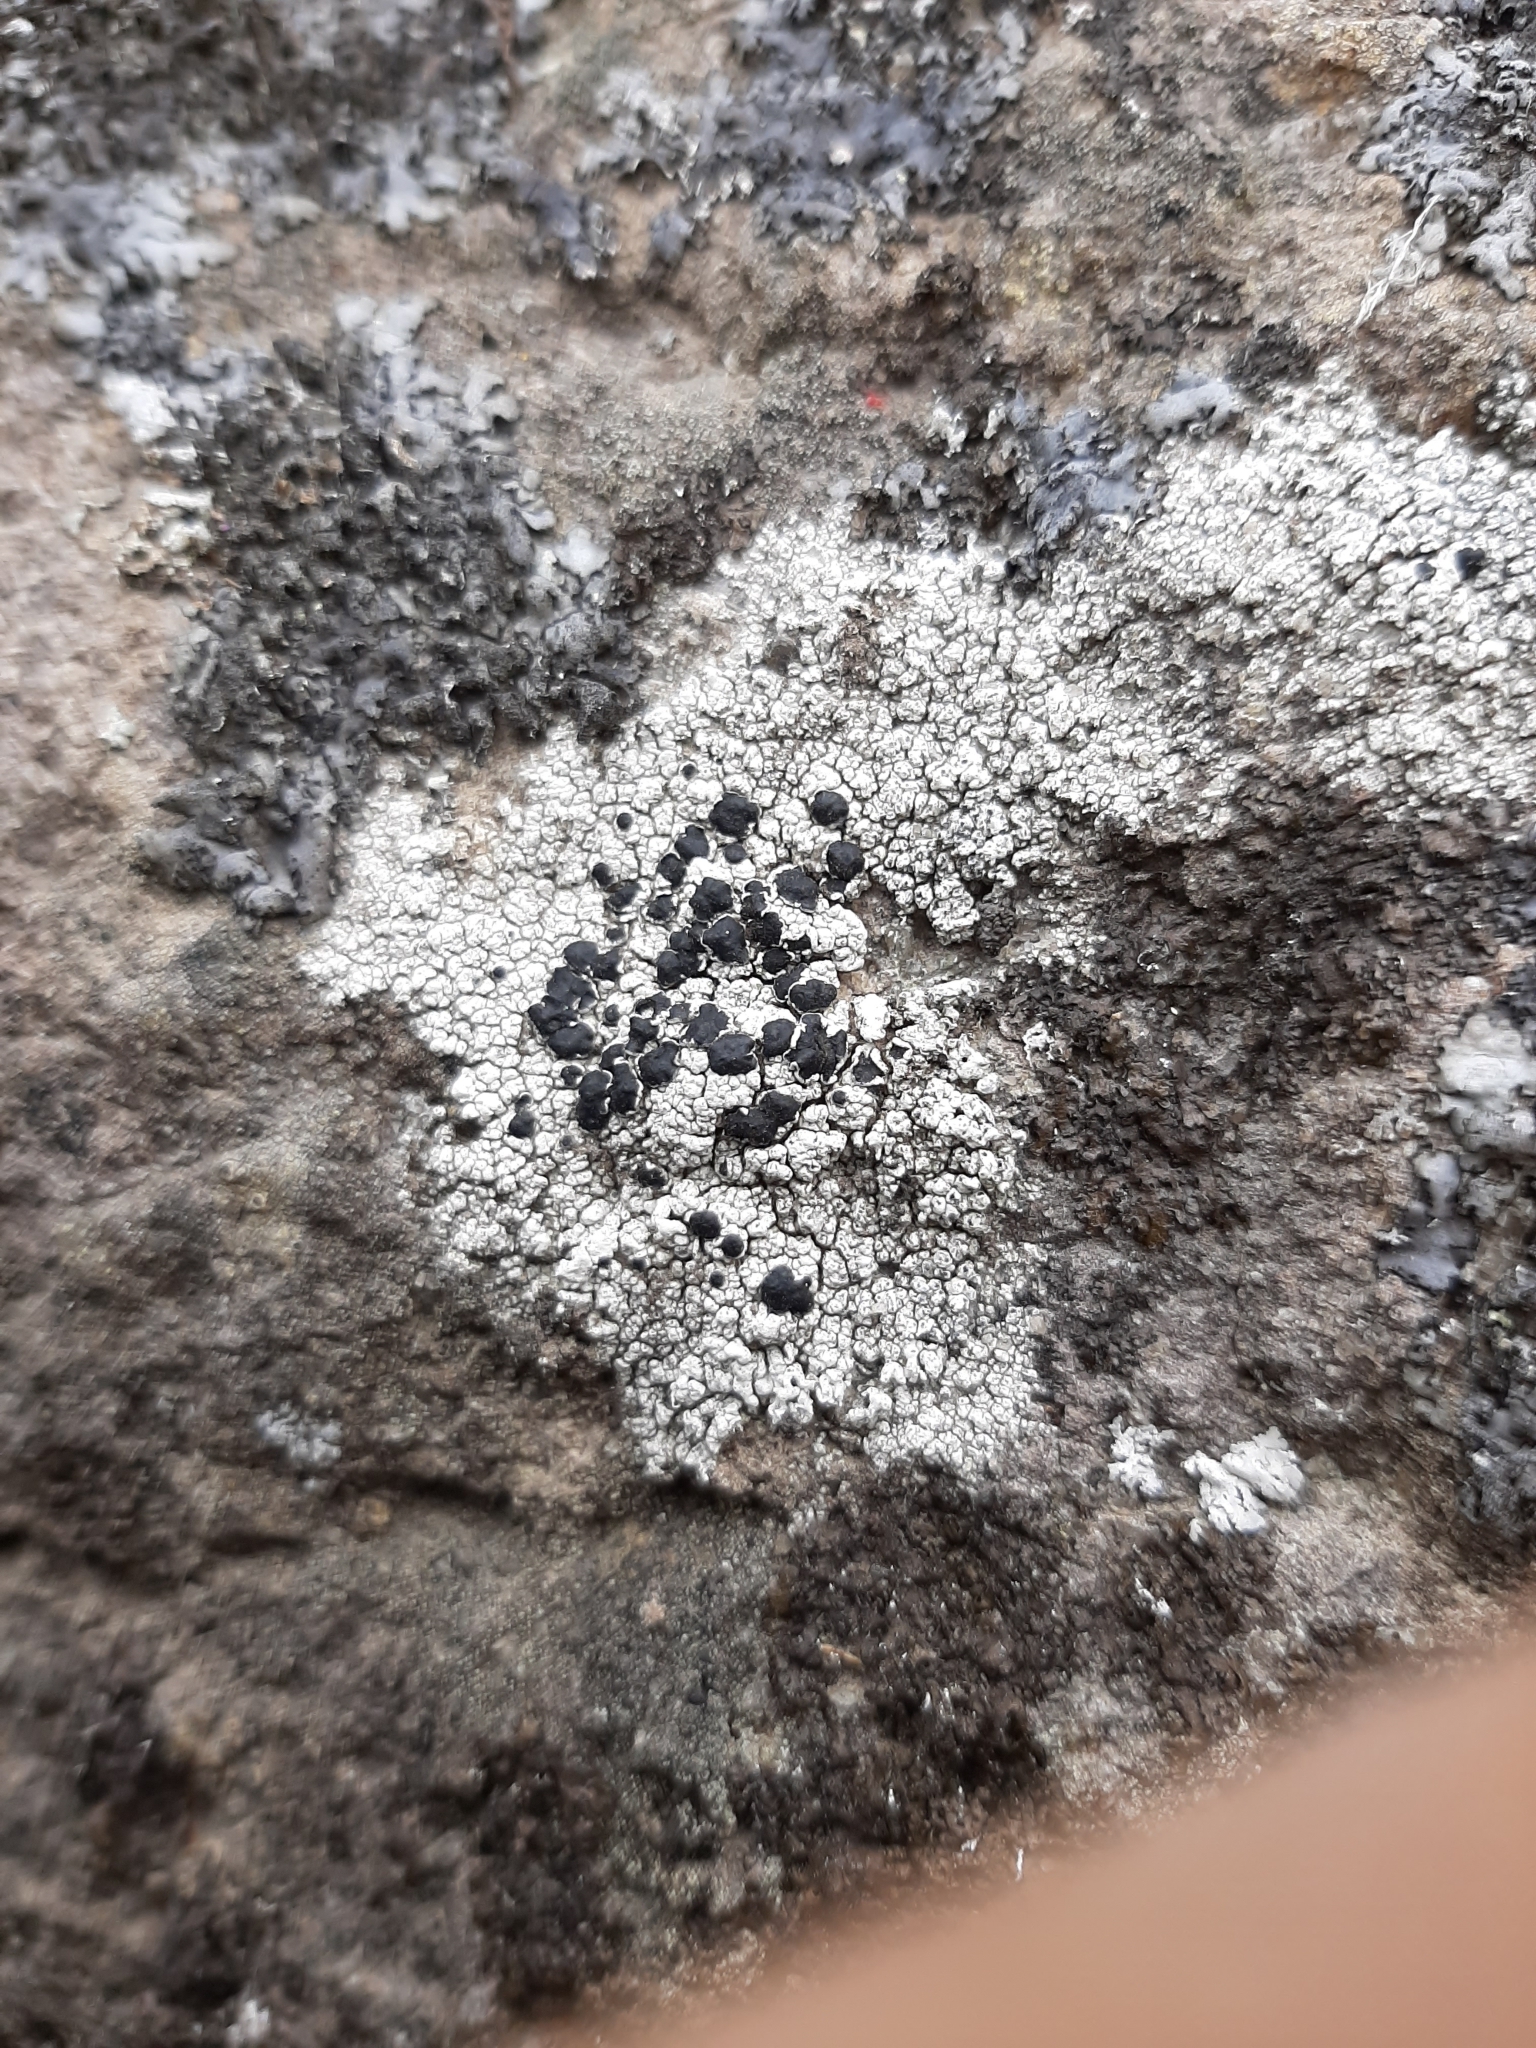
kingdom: Fungi
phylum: Ascomycota
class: Lecanoromycetes
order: Lecanorales
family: Tephromelataceae
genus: Tephromela
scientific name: Tephromela atra
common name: Black shields
